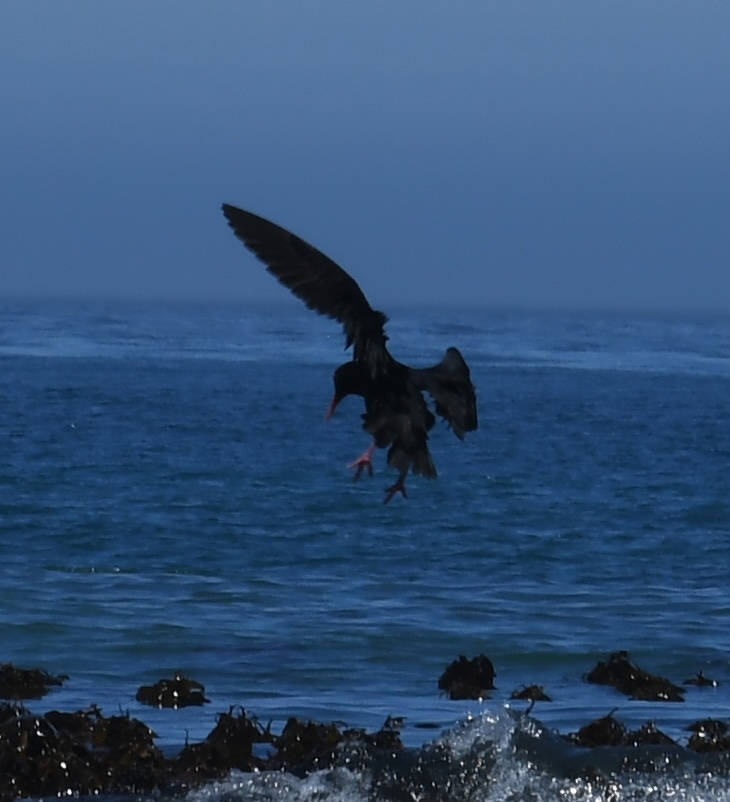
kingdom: Animalia
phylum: Chordata
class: Aves
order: Charadriiformes
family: Haematopodidae
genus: Haematopus
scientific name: Haematopus moquini
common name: African oystercatcher
